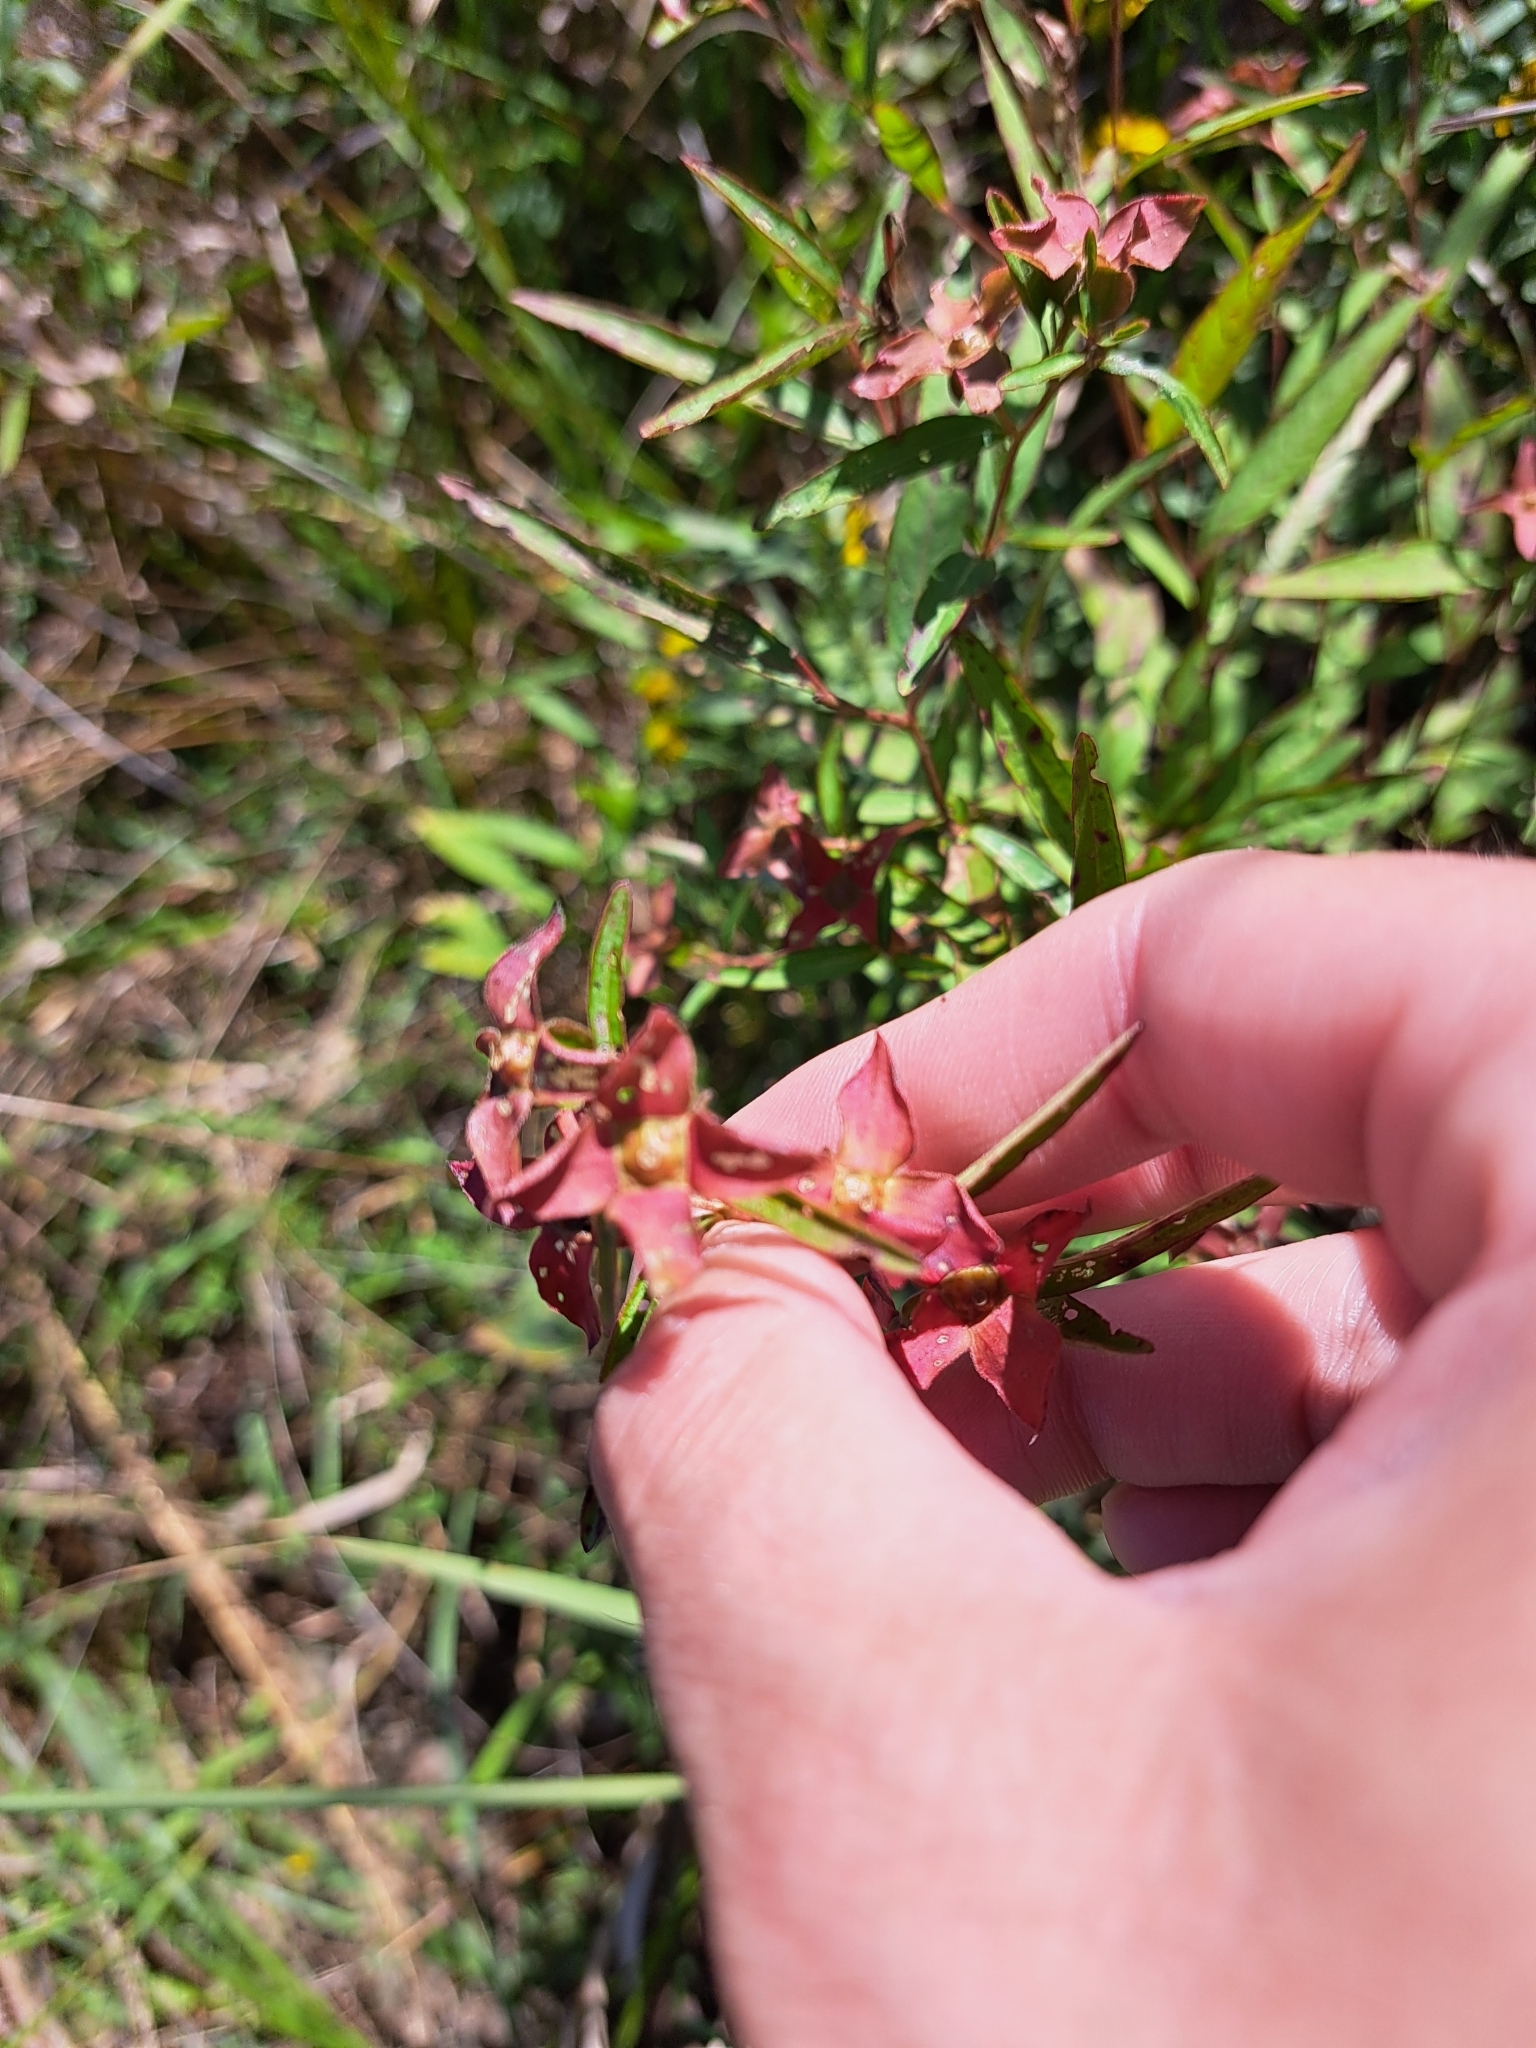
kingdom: Plantae
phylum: Tracheophyta
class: Magnoliopsida
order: Myrtales
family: Onagraceae
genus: Ludwigia
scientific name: Ludwigia alternifolia
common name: Rattlebox
